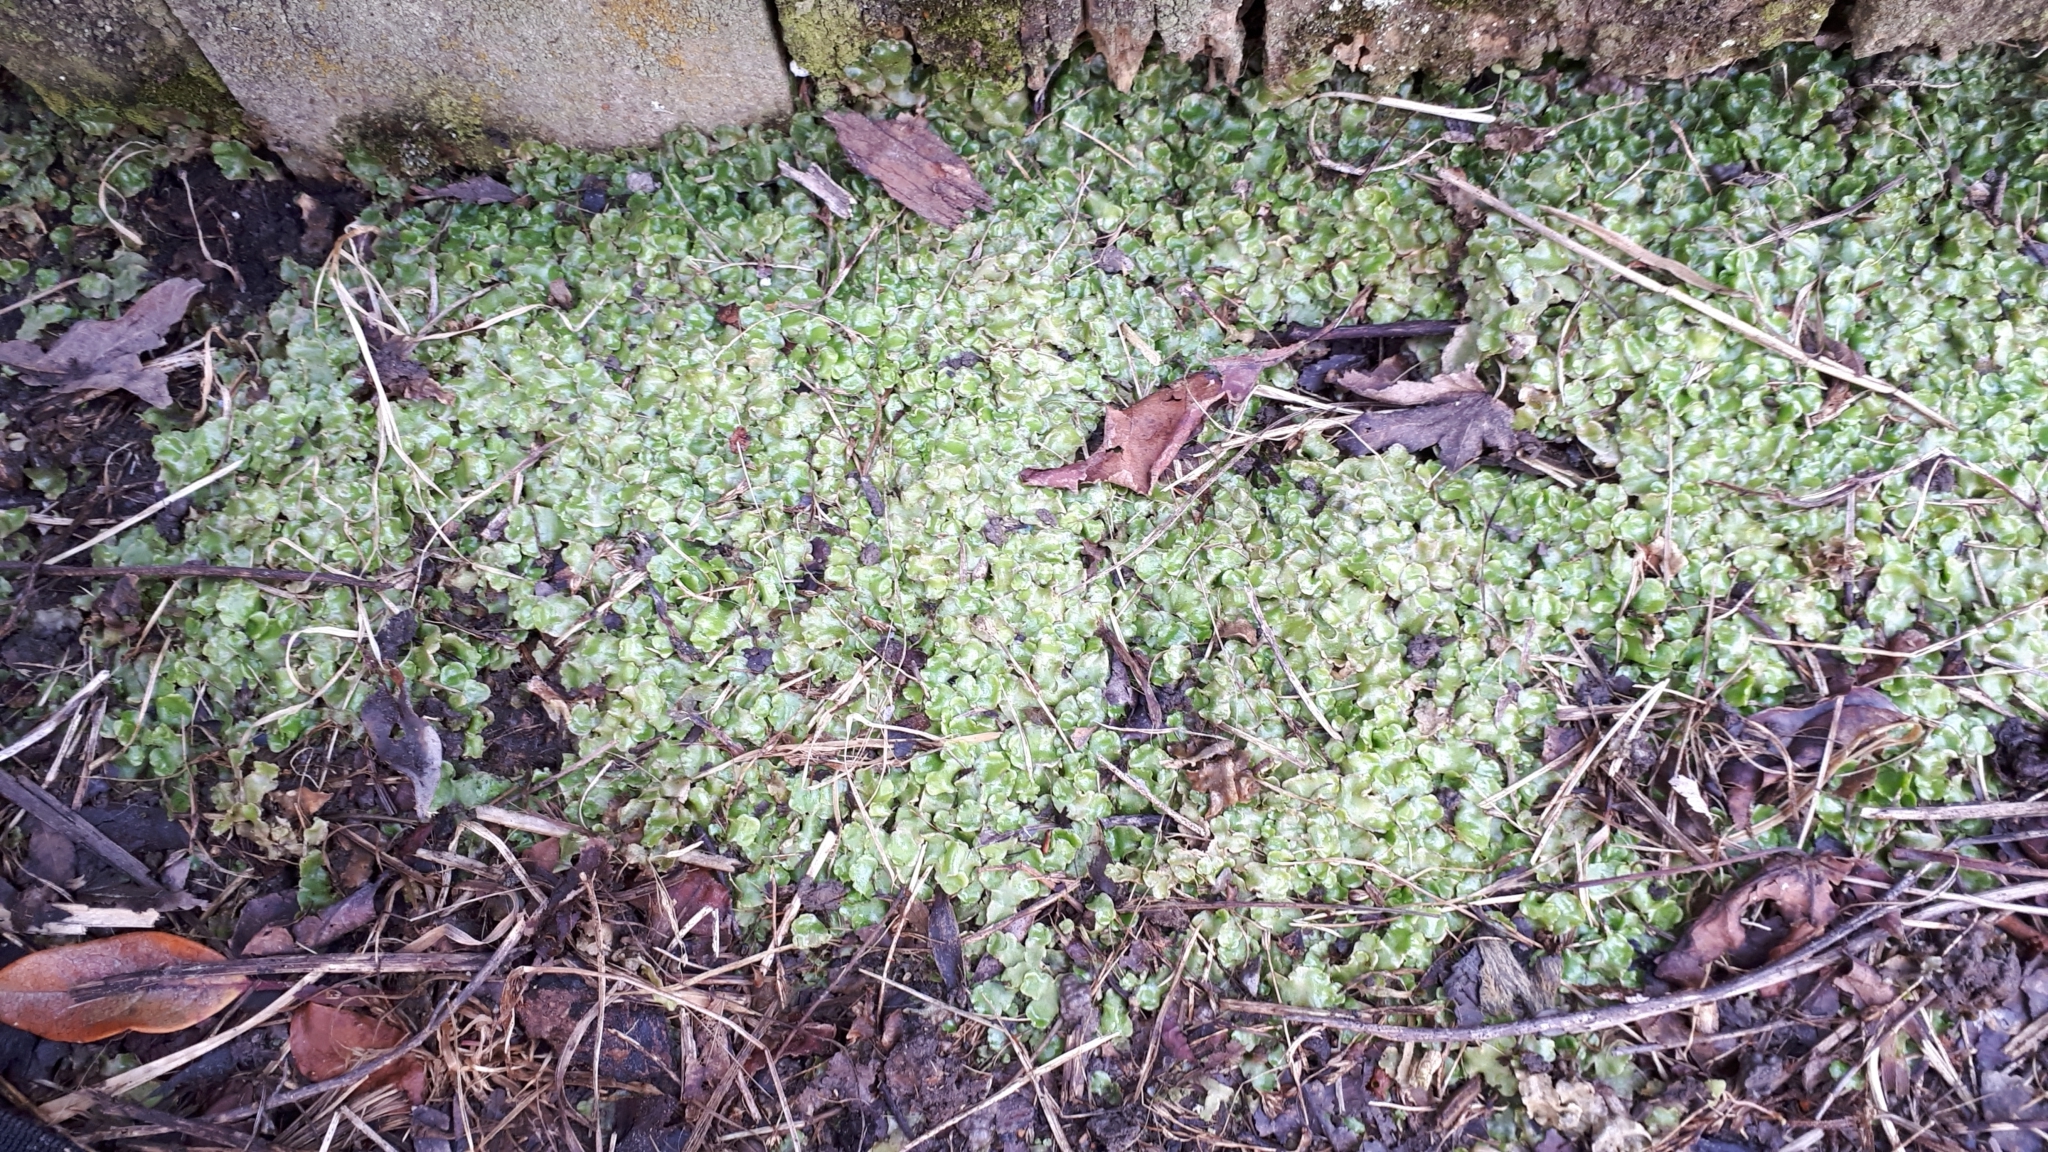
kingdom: Plantae
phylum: Marchantiophyta
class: Marchantiopsida
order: Lunulariales
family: Lunulariaceae
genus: Lunularia
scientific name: Lunularia cruciata
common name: Crescent-cup liverwort
